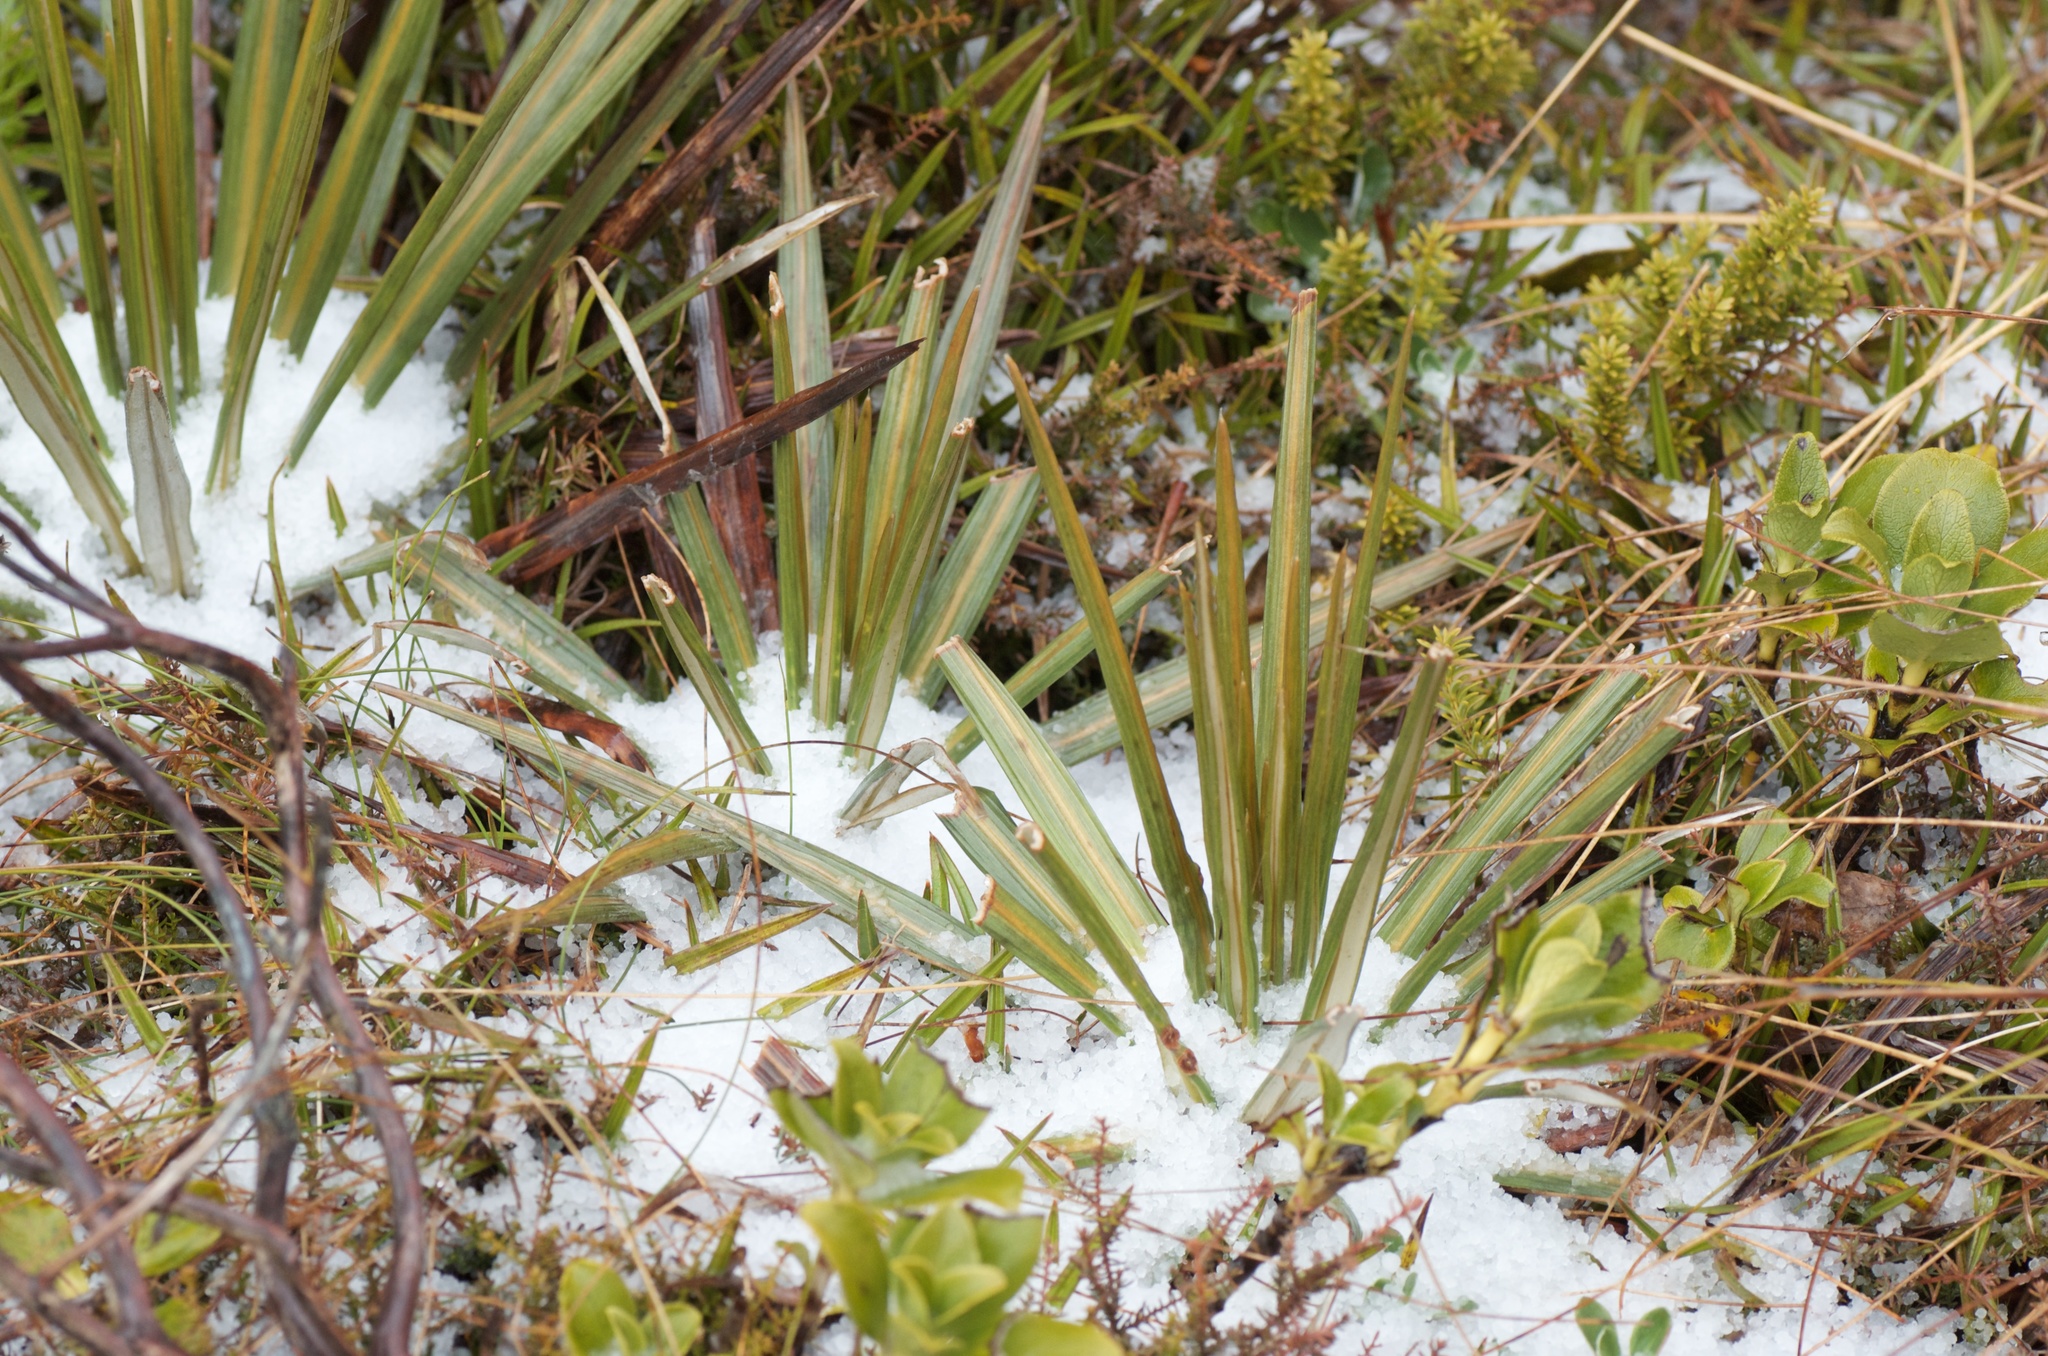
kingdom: Plantae
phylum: Tracheophyta
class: Magnoliopsida
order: Asterales
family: Asteraceae
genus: Celmisia
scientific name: Celmisia armstrongii
